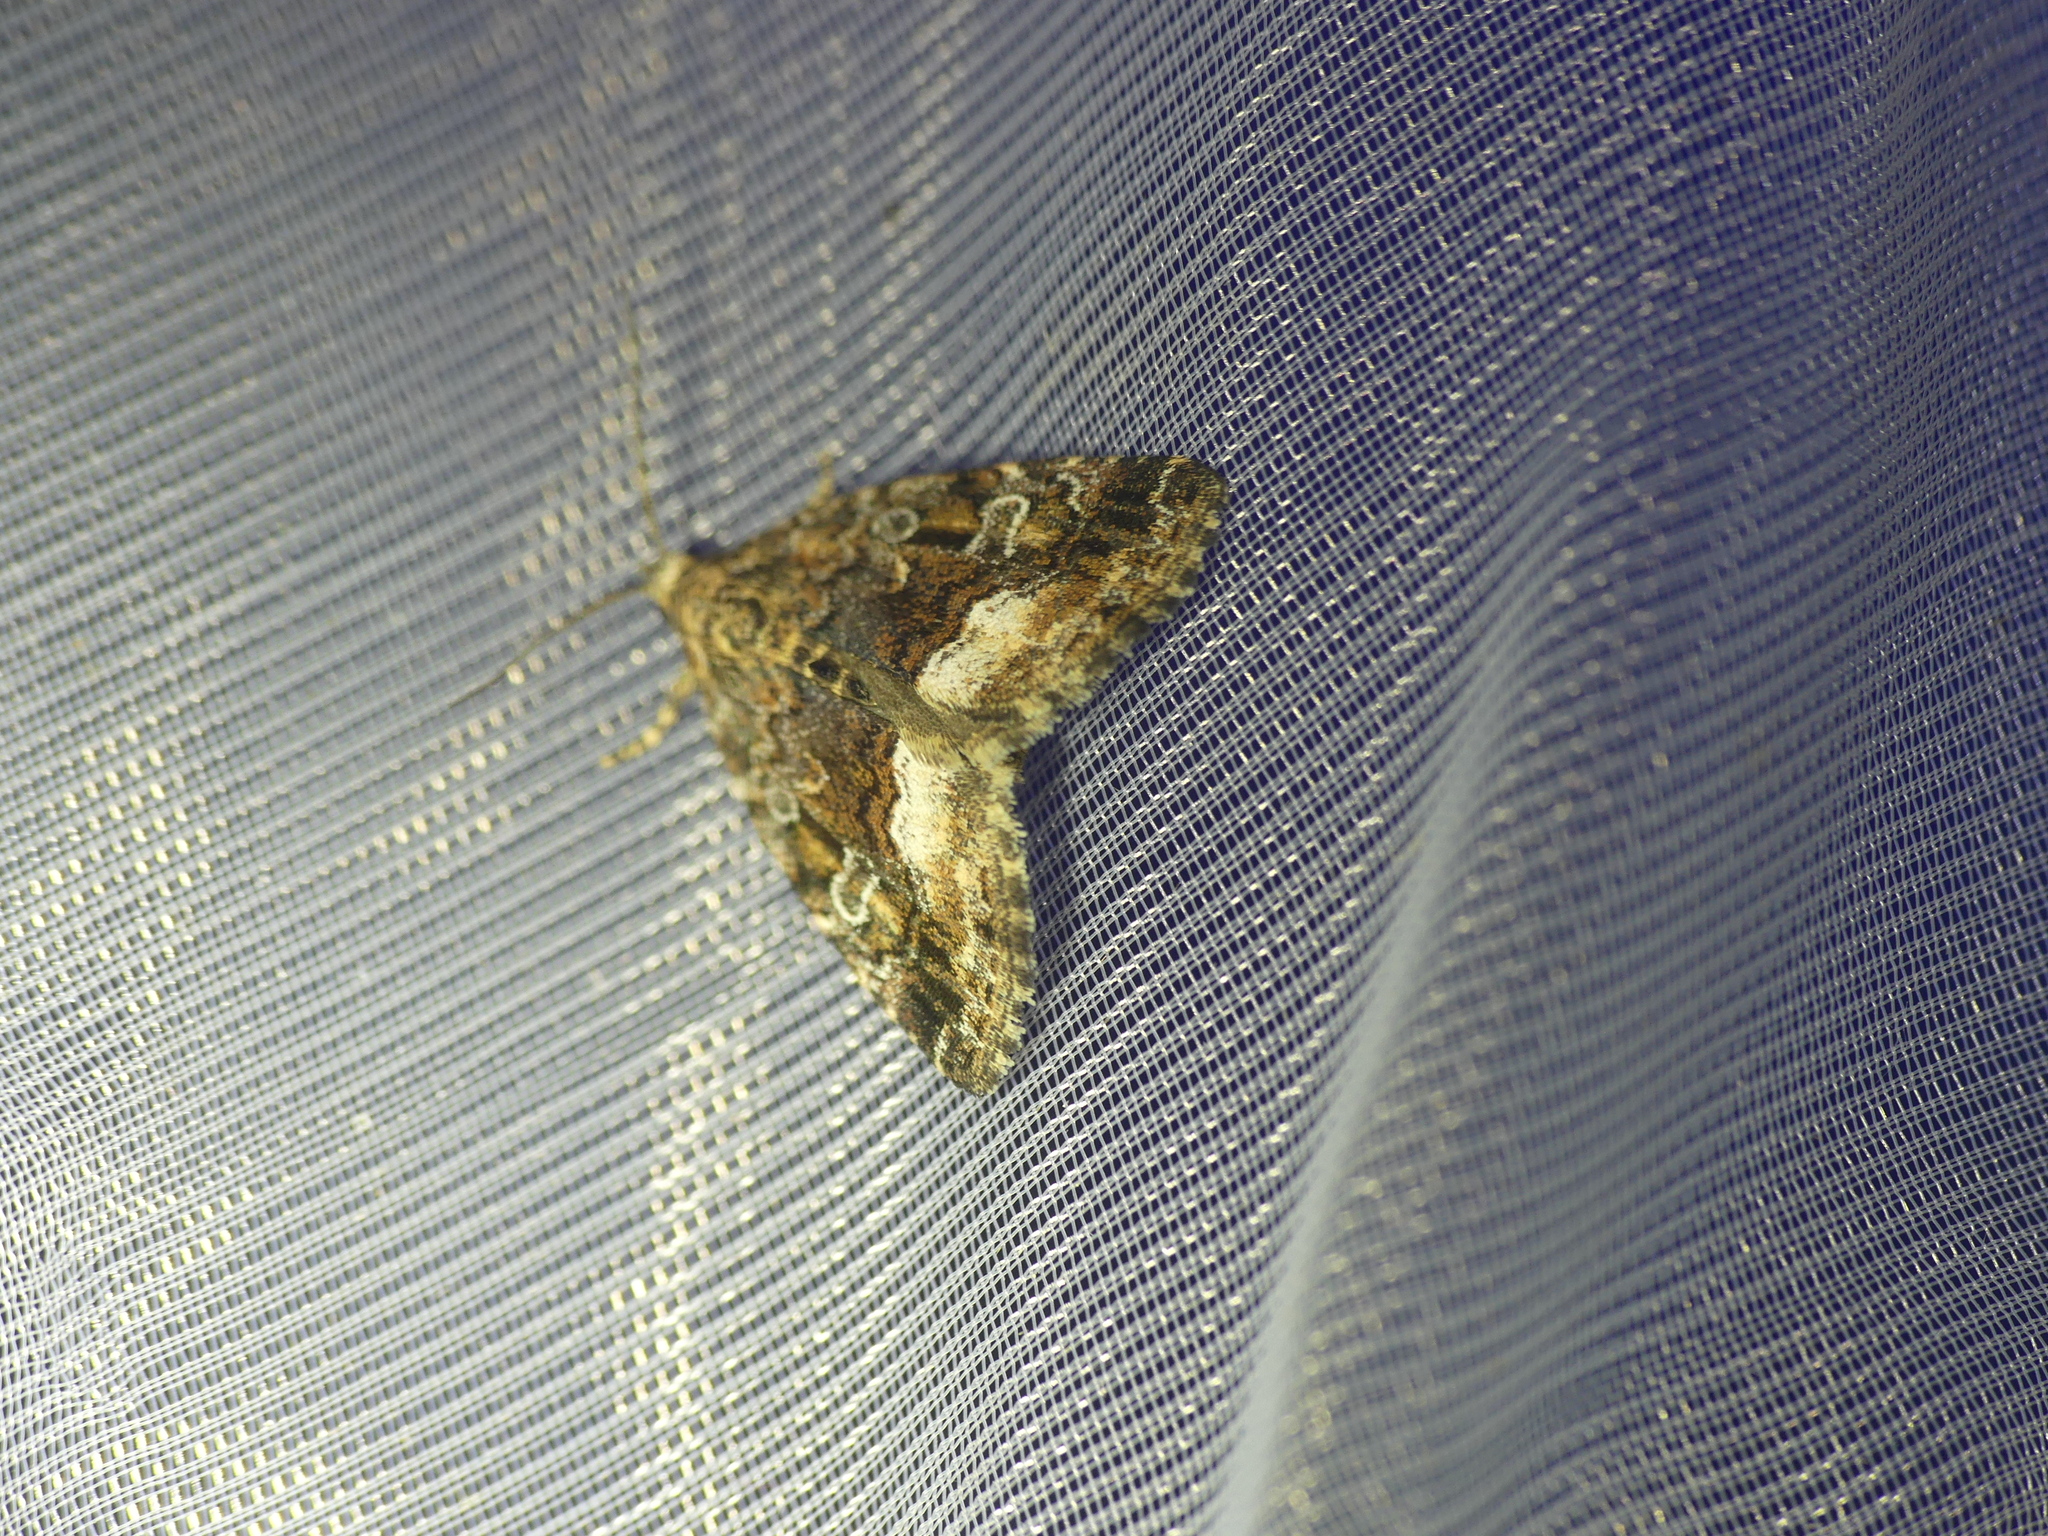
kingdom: Animalia
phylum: Arthropoda
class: Insecta
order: Lepidoptera
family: Noctuidae
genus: Deltote
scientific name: Deltote pygarga
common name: Marbled white spot
